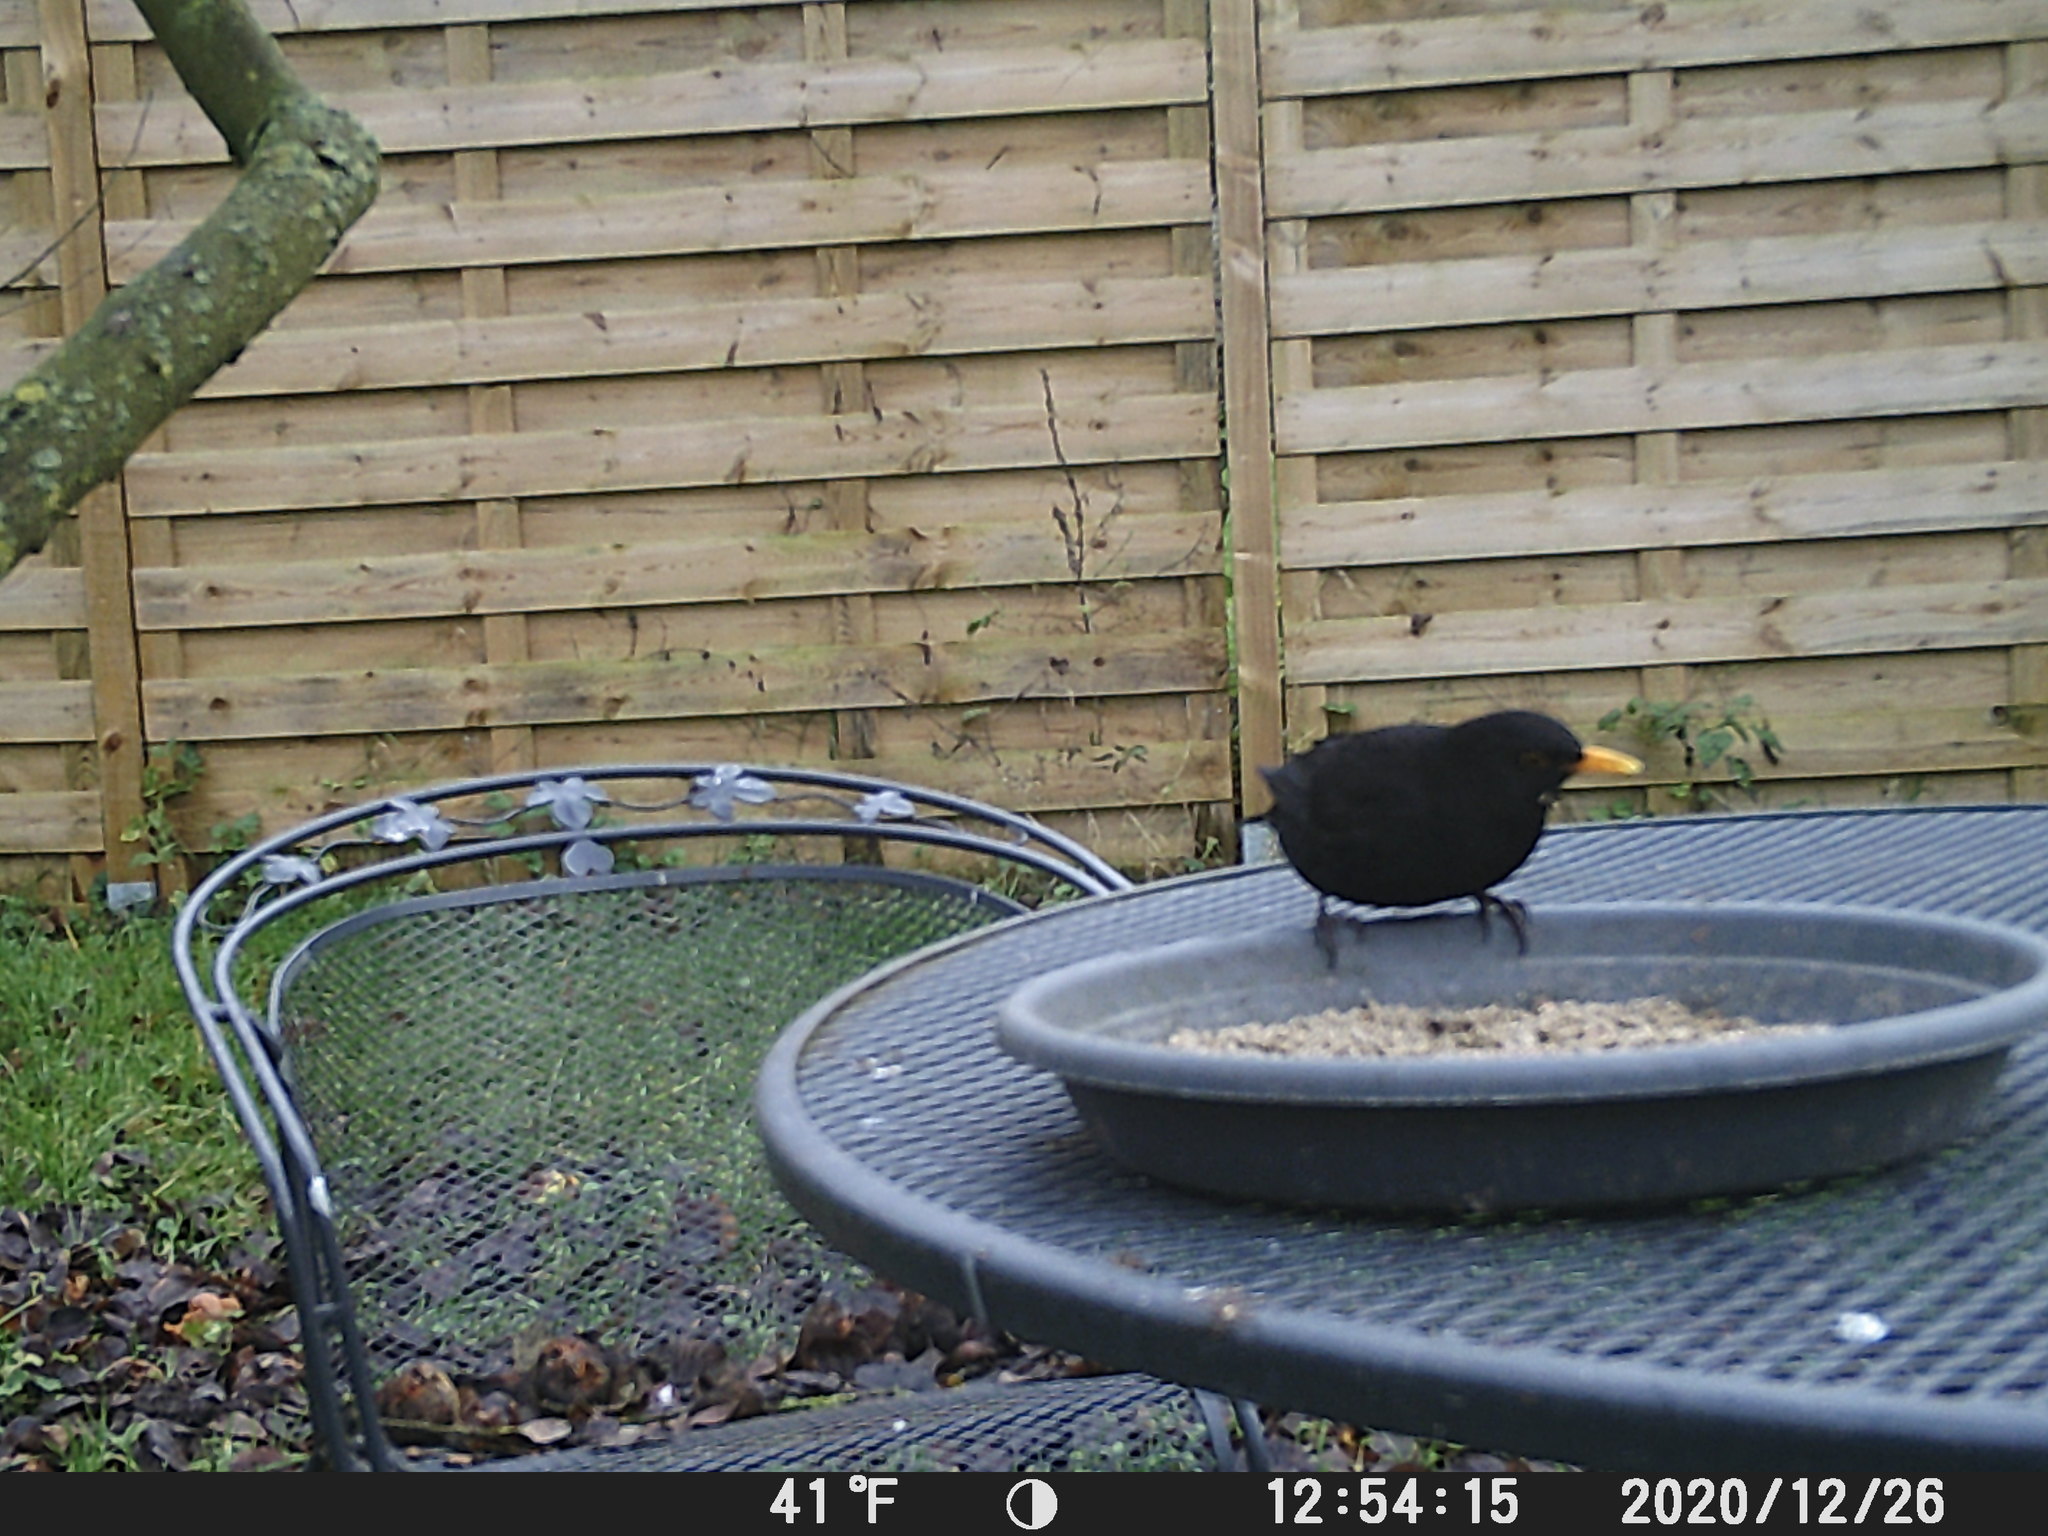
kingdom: Animalia
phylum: Chordata
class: Aves
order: Passeriformes
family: Turdidae
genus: Turdus
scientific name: Turdus merula
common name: Common blackbird
